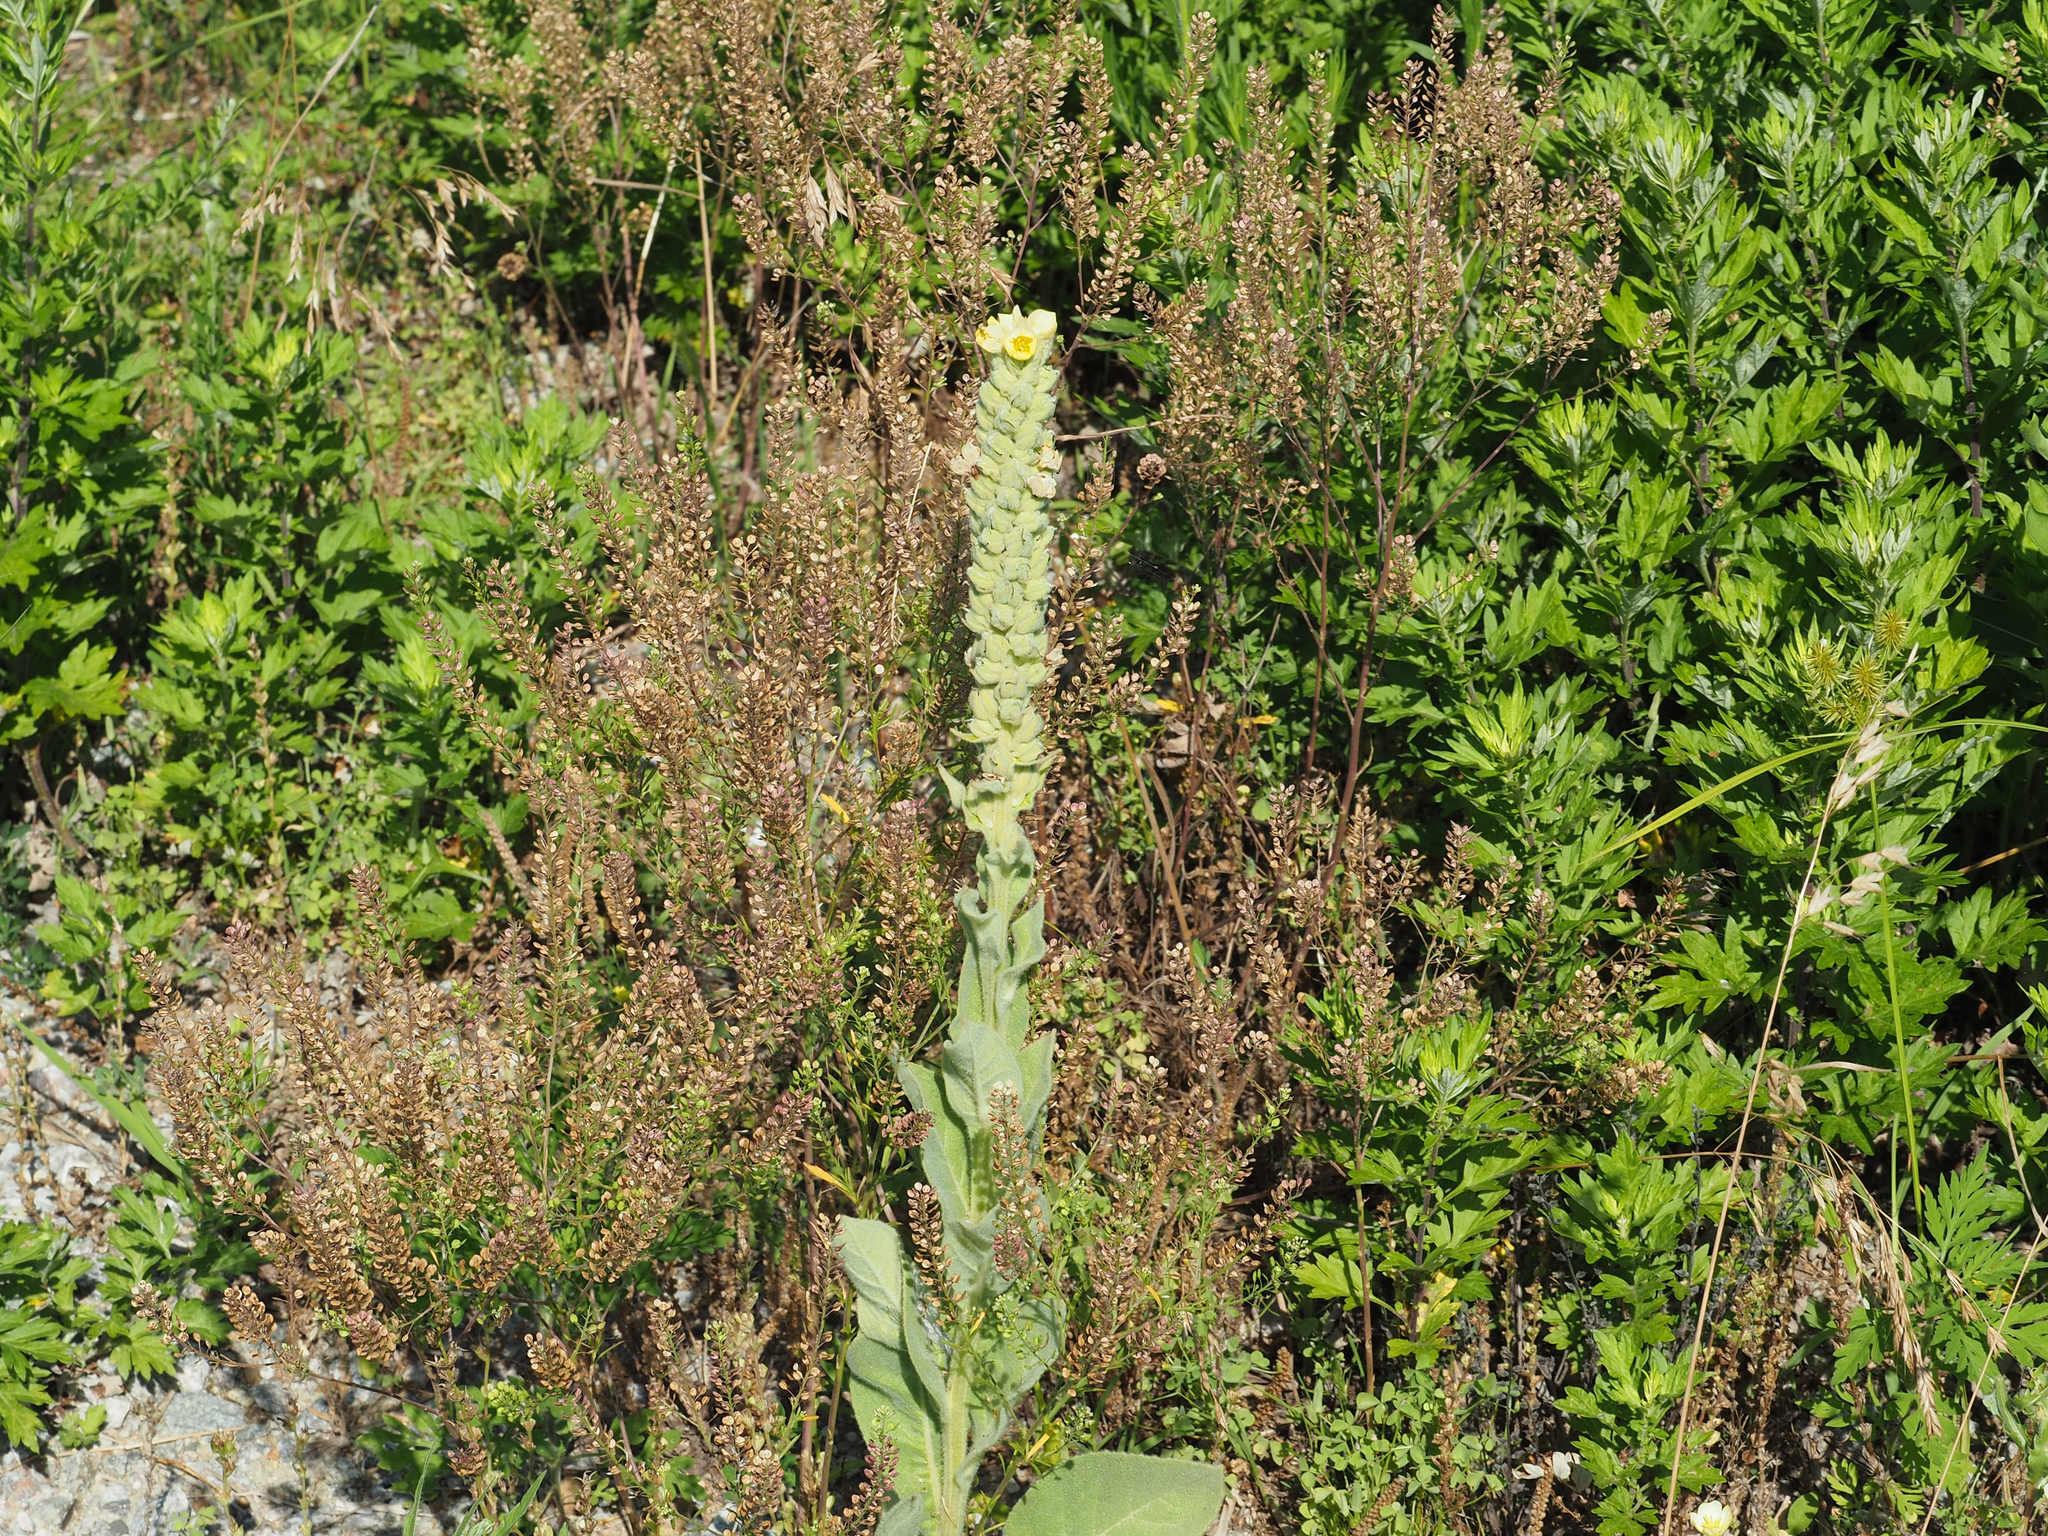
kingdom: Plantae
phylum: Tracheophyta
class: Magnoliopsida
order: Lamiales
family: Scrophulariaceae
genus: Verbascum
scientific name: Verbascum thapsus
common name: Common mullein
